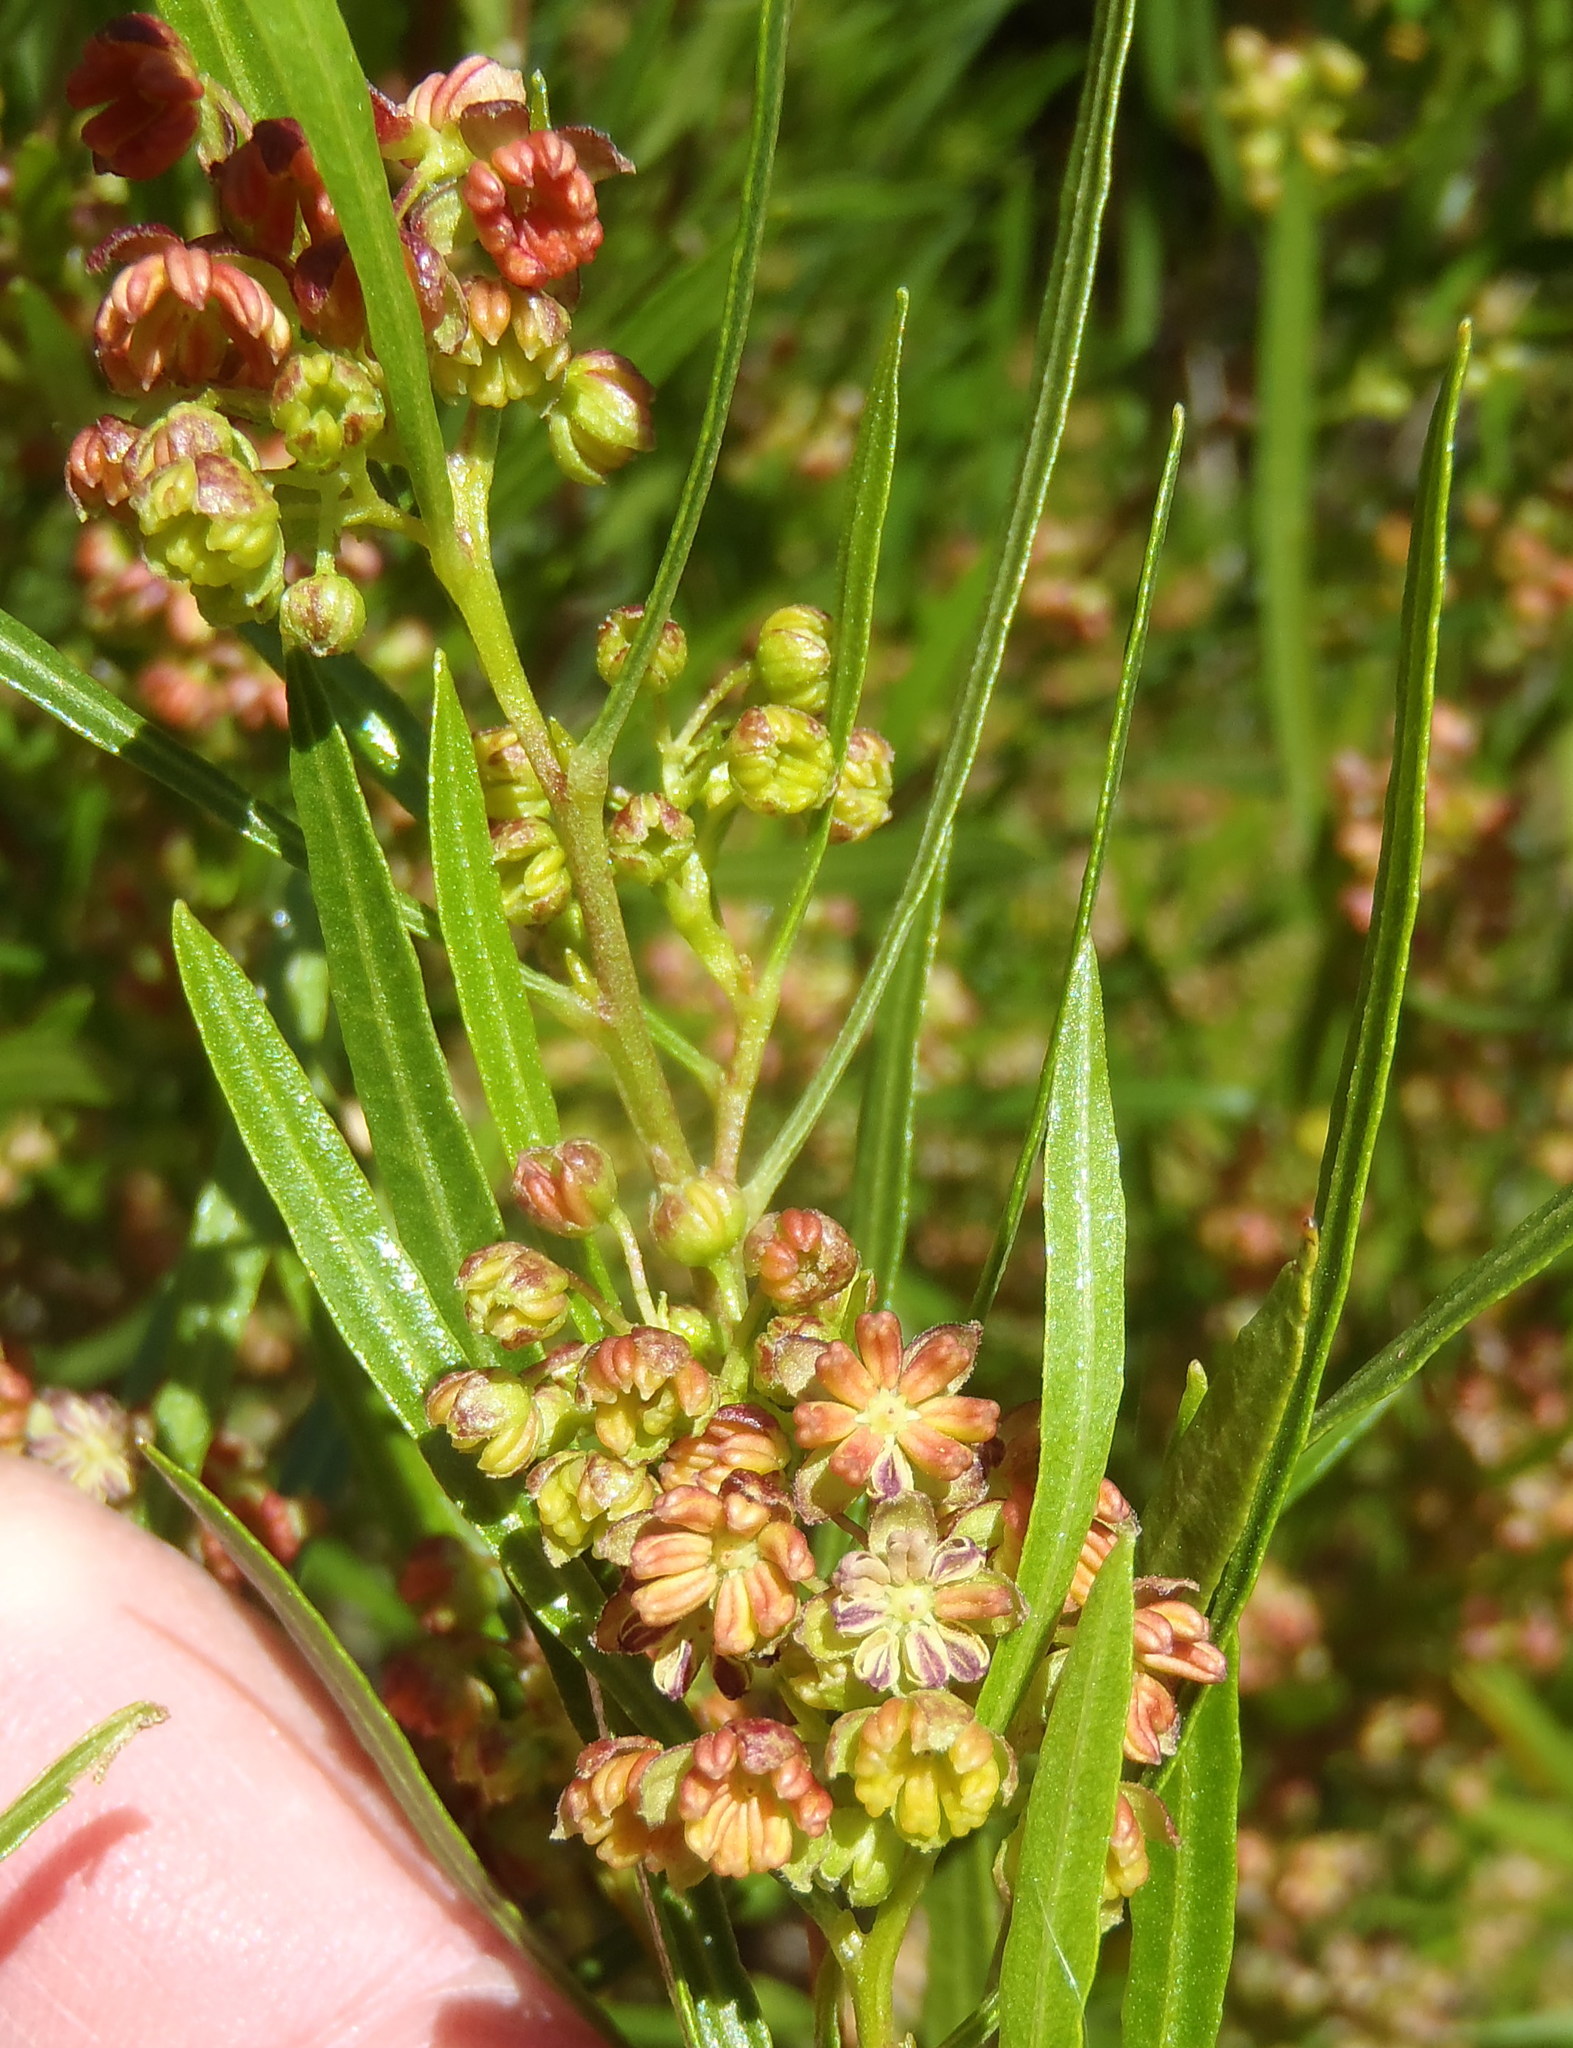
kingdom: Plantae
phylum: Tracheophyta
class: Magnoliopsida
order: Sapindales
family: Sapindaceae
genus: Dodonaea
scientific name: Dodonaea viscosa
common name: Hopbush
